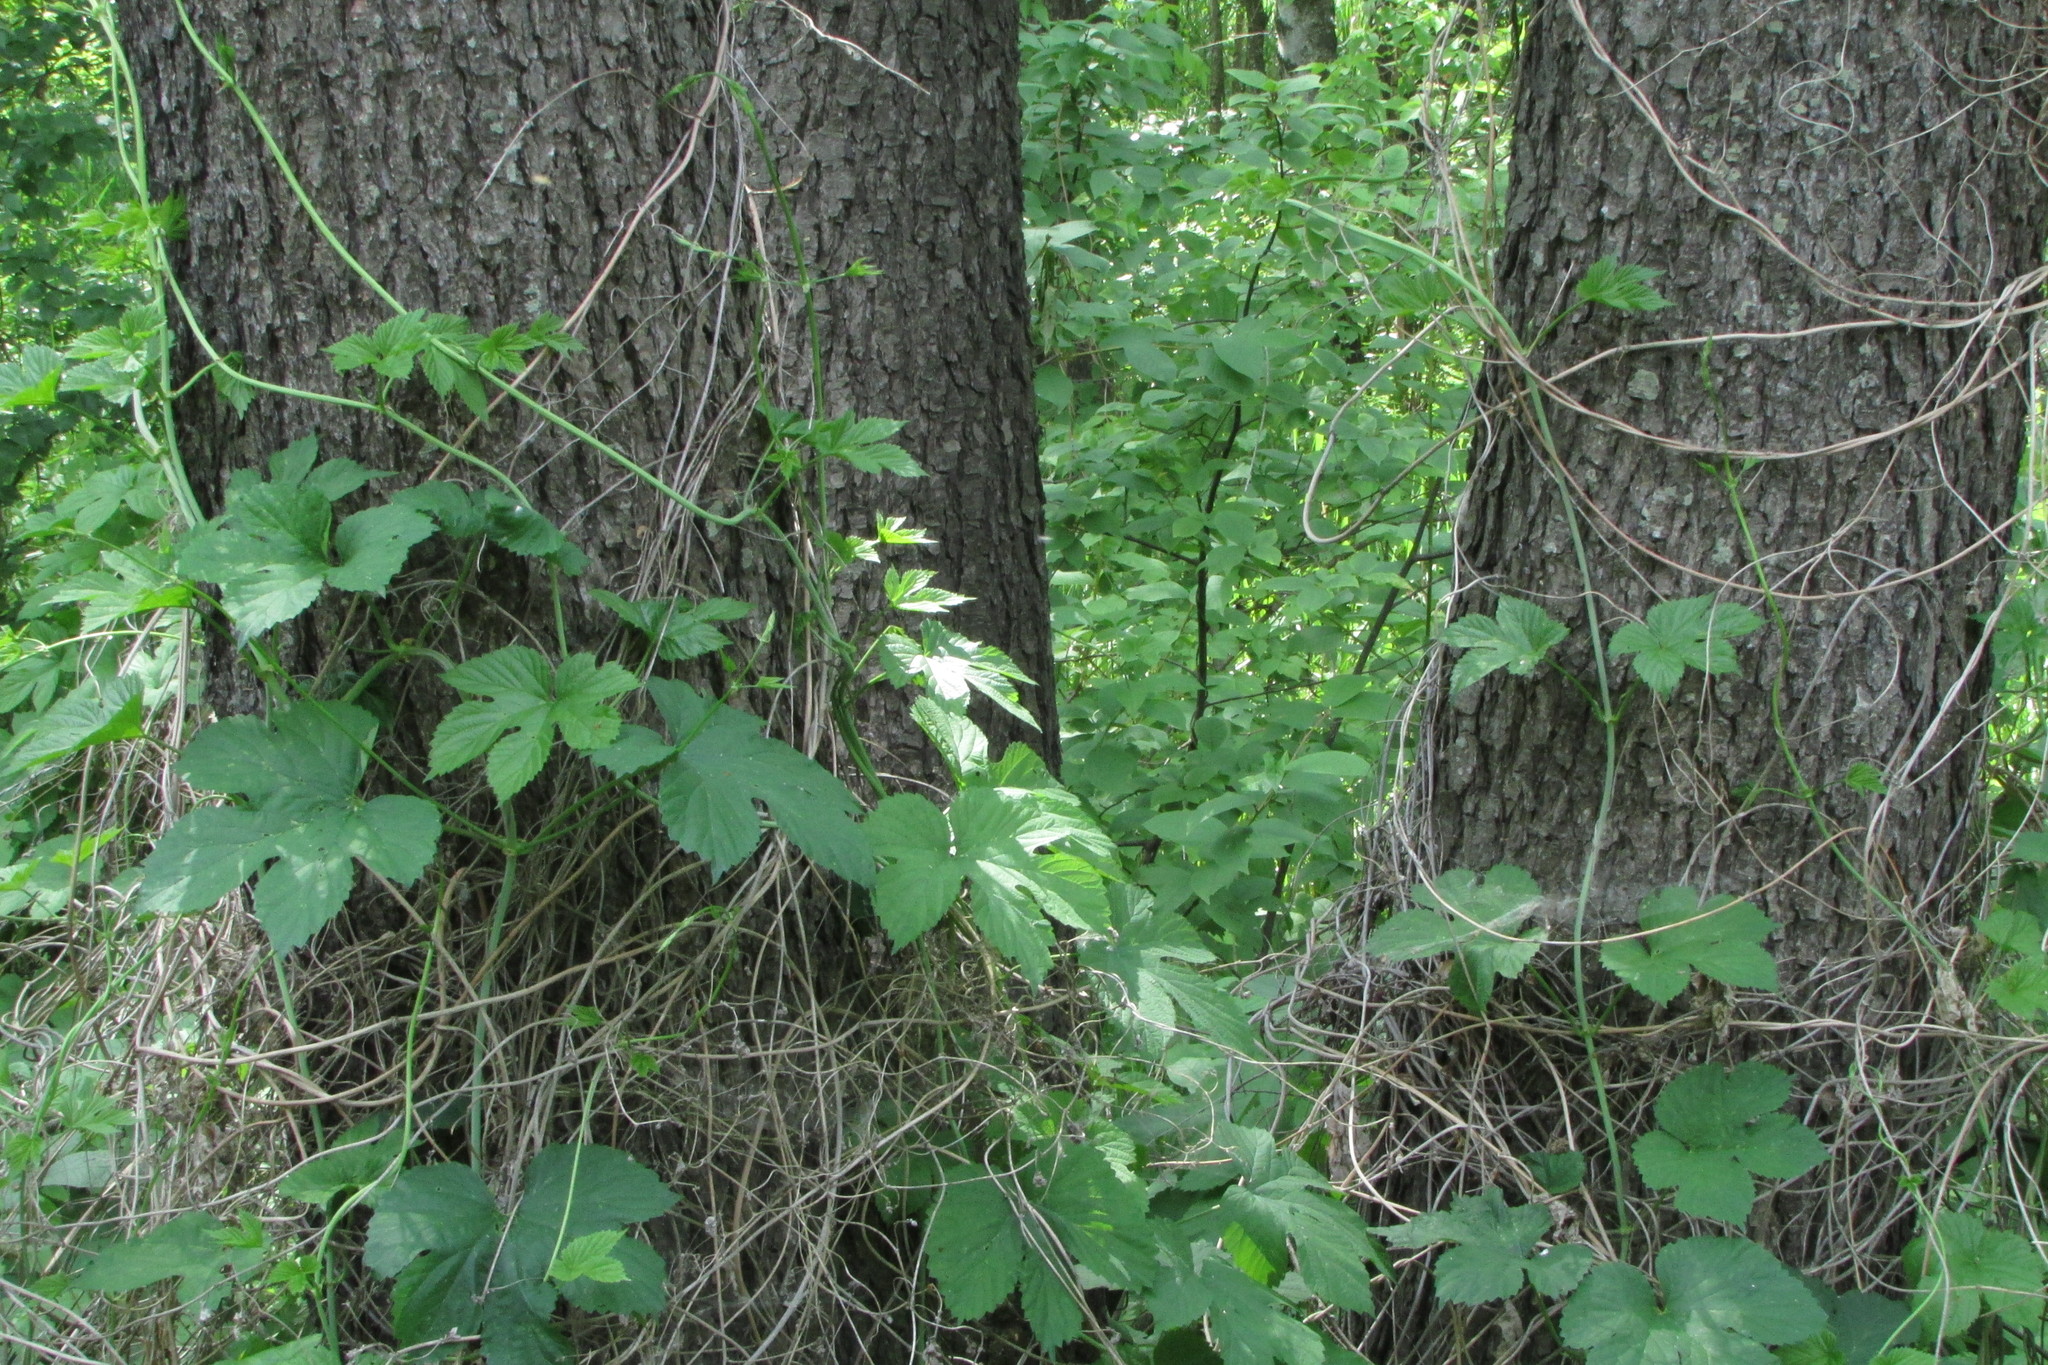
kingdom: Plantae
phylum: Tracheophyta
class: Magnoliopsida
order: Rosales
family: Cannabaceae
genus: Humulus
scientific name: Humulus lupulus
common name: Hop
